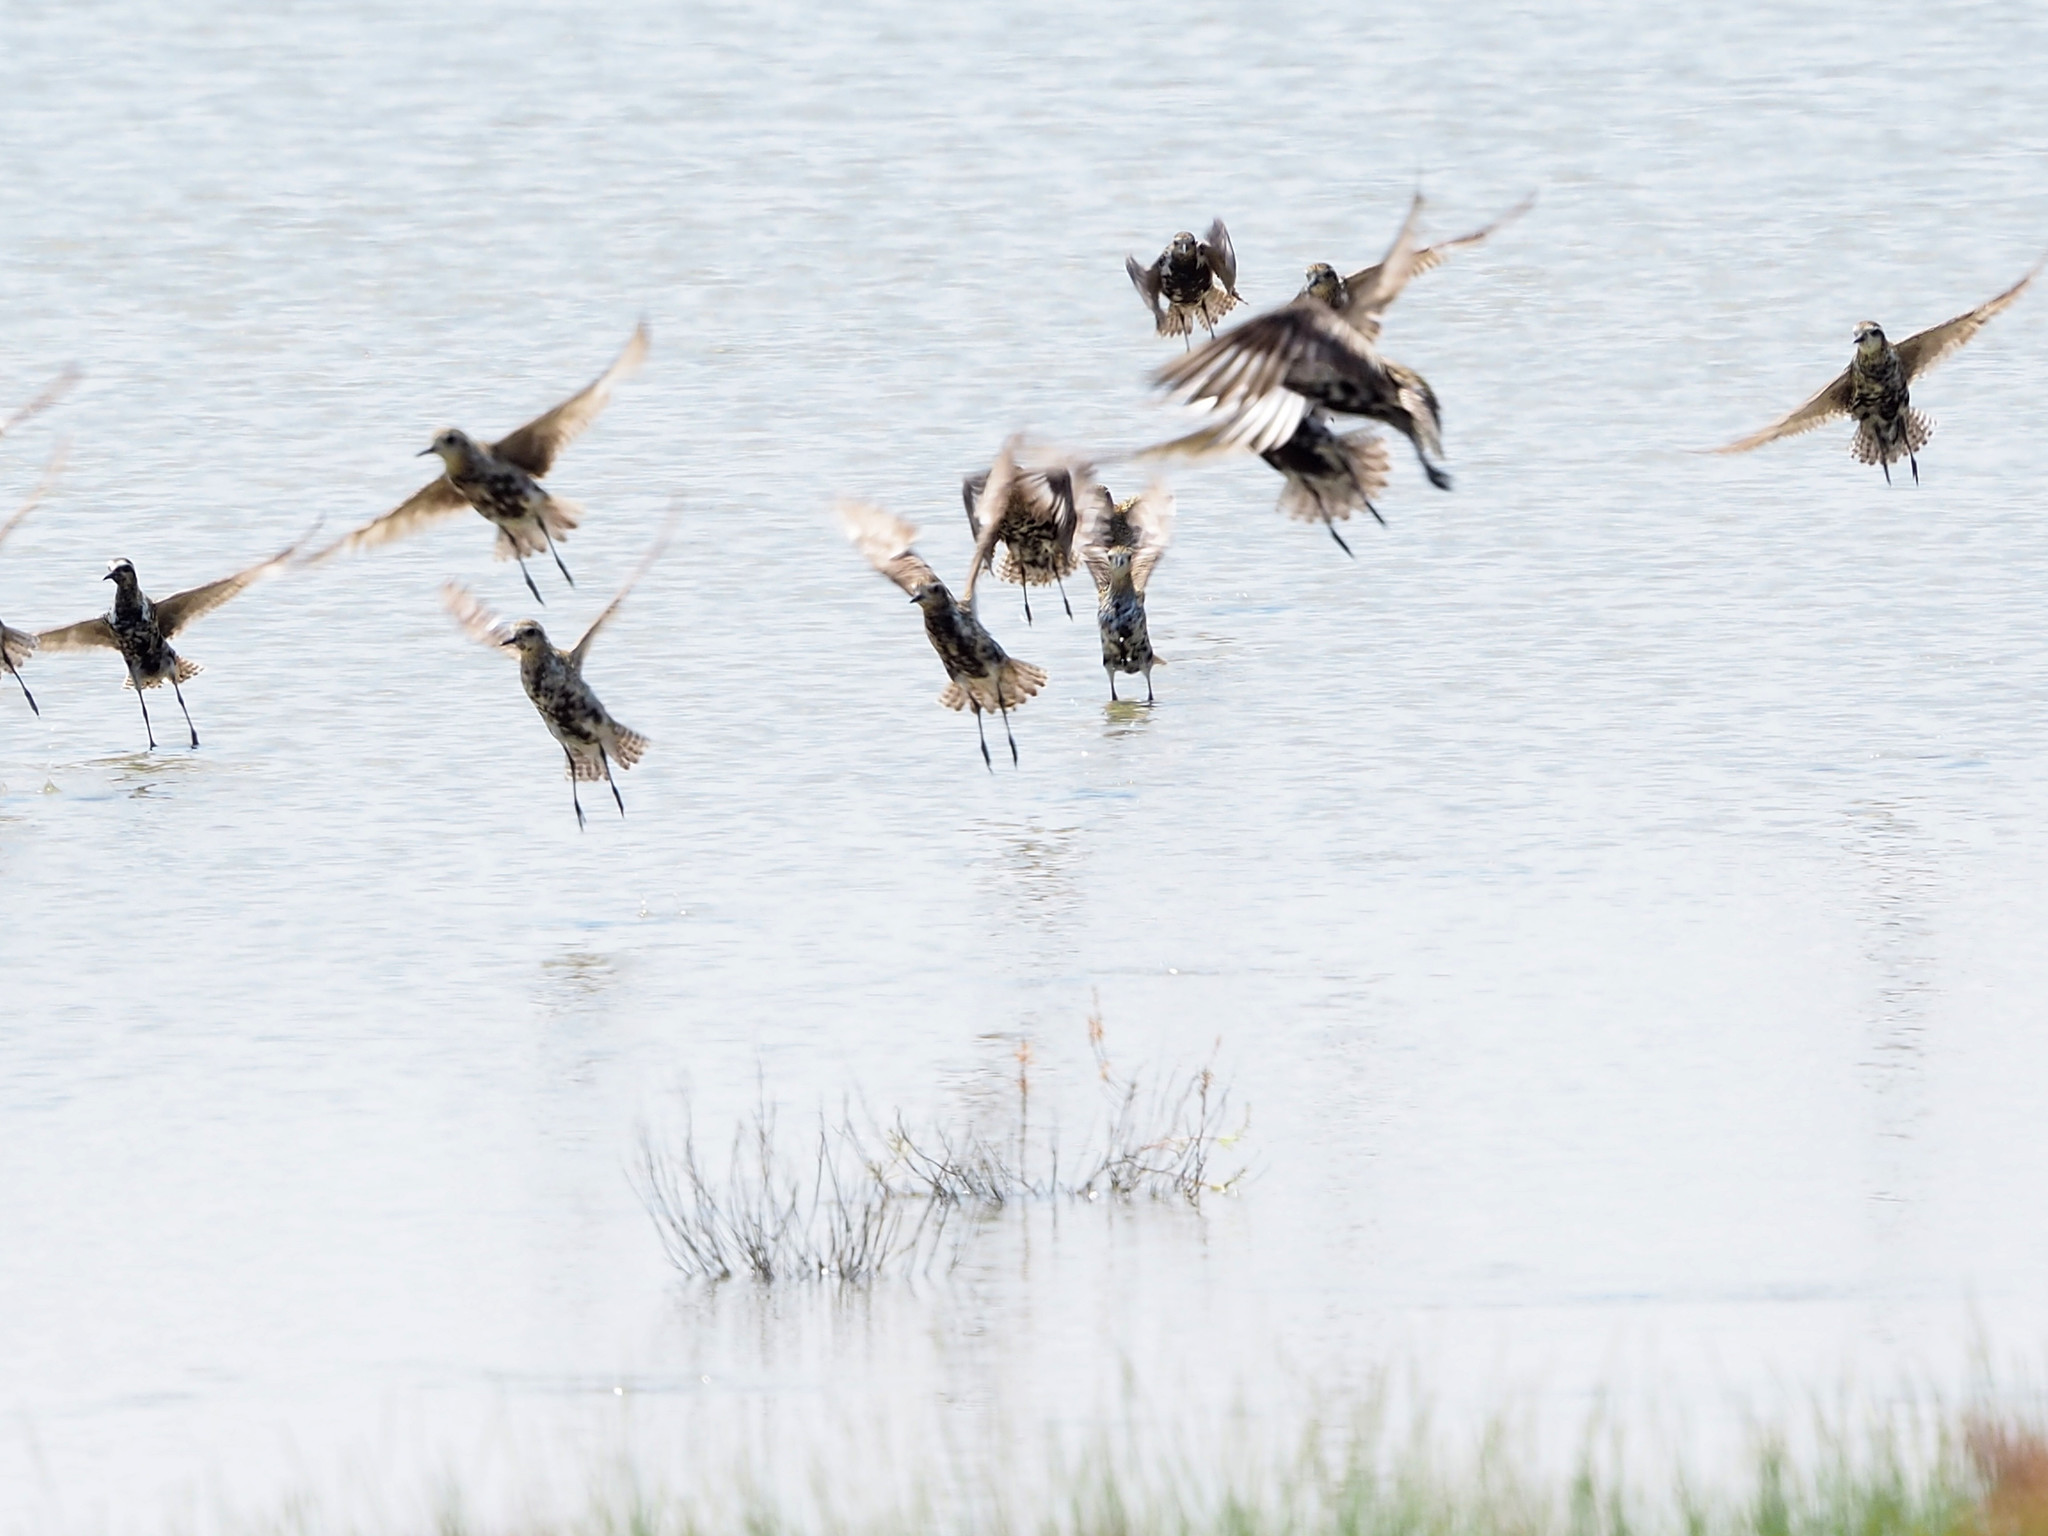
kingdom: Animalia
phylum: Chordata
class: Aves
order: Charadriiformes
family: Charadriidae
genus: Pluvialis
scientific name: Pluvialis fulva
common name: Pacific golden plover
